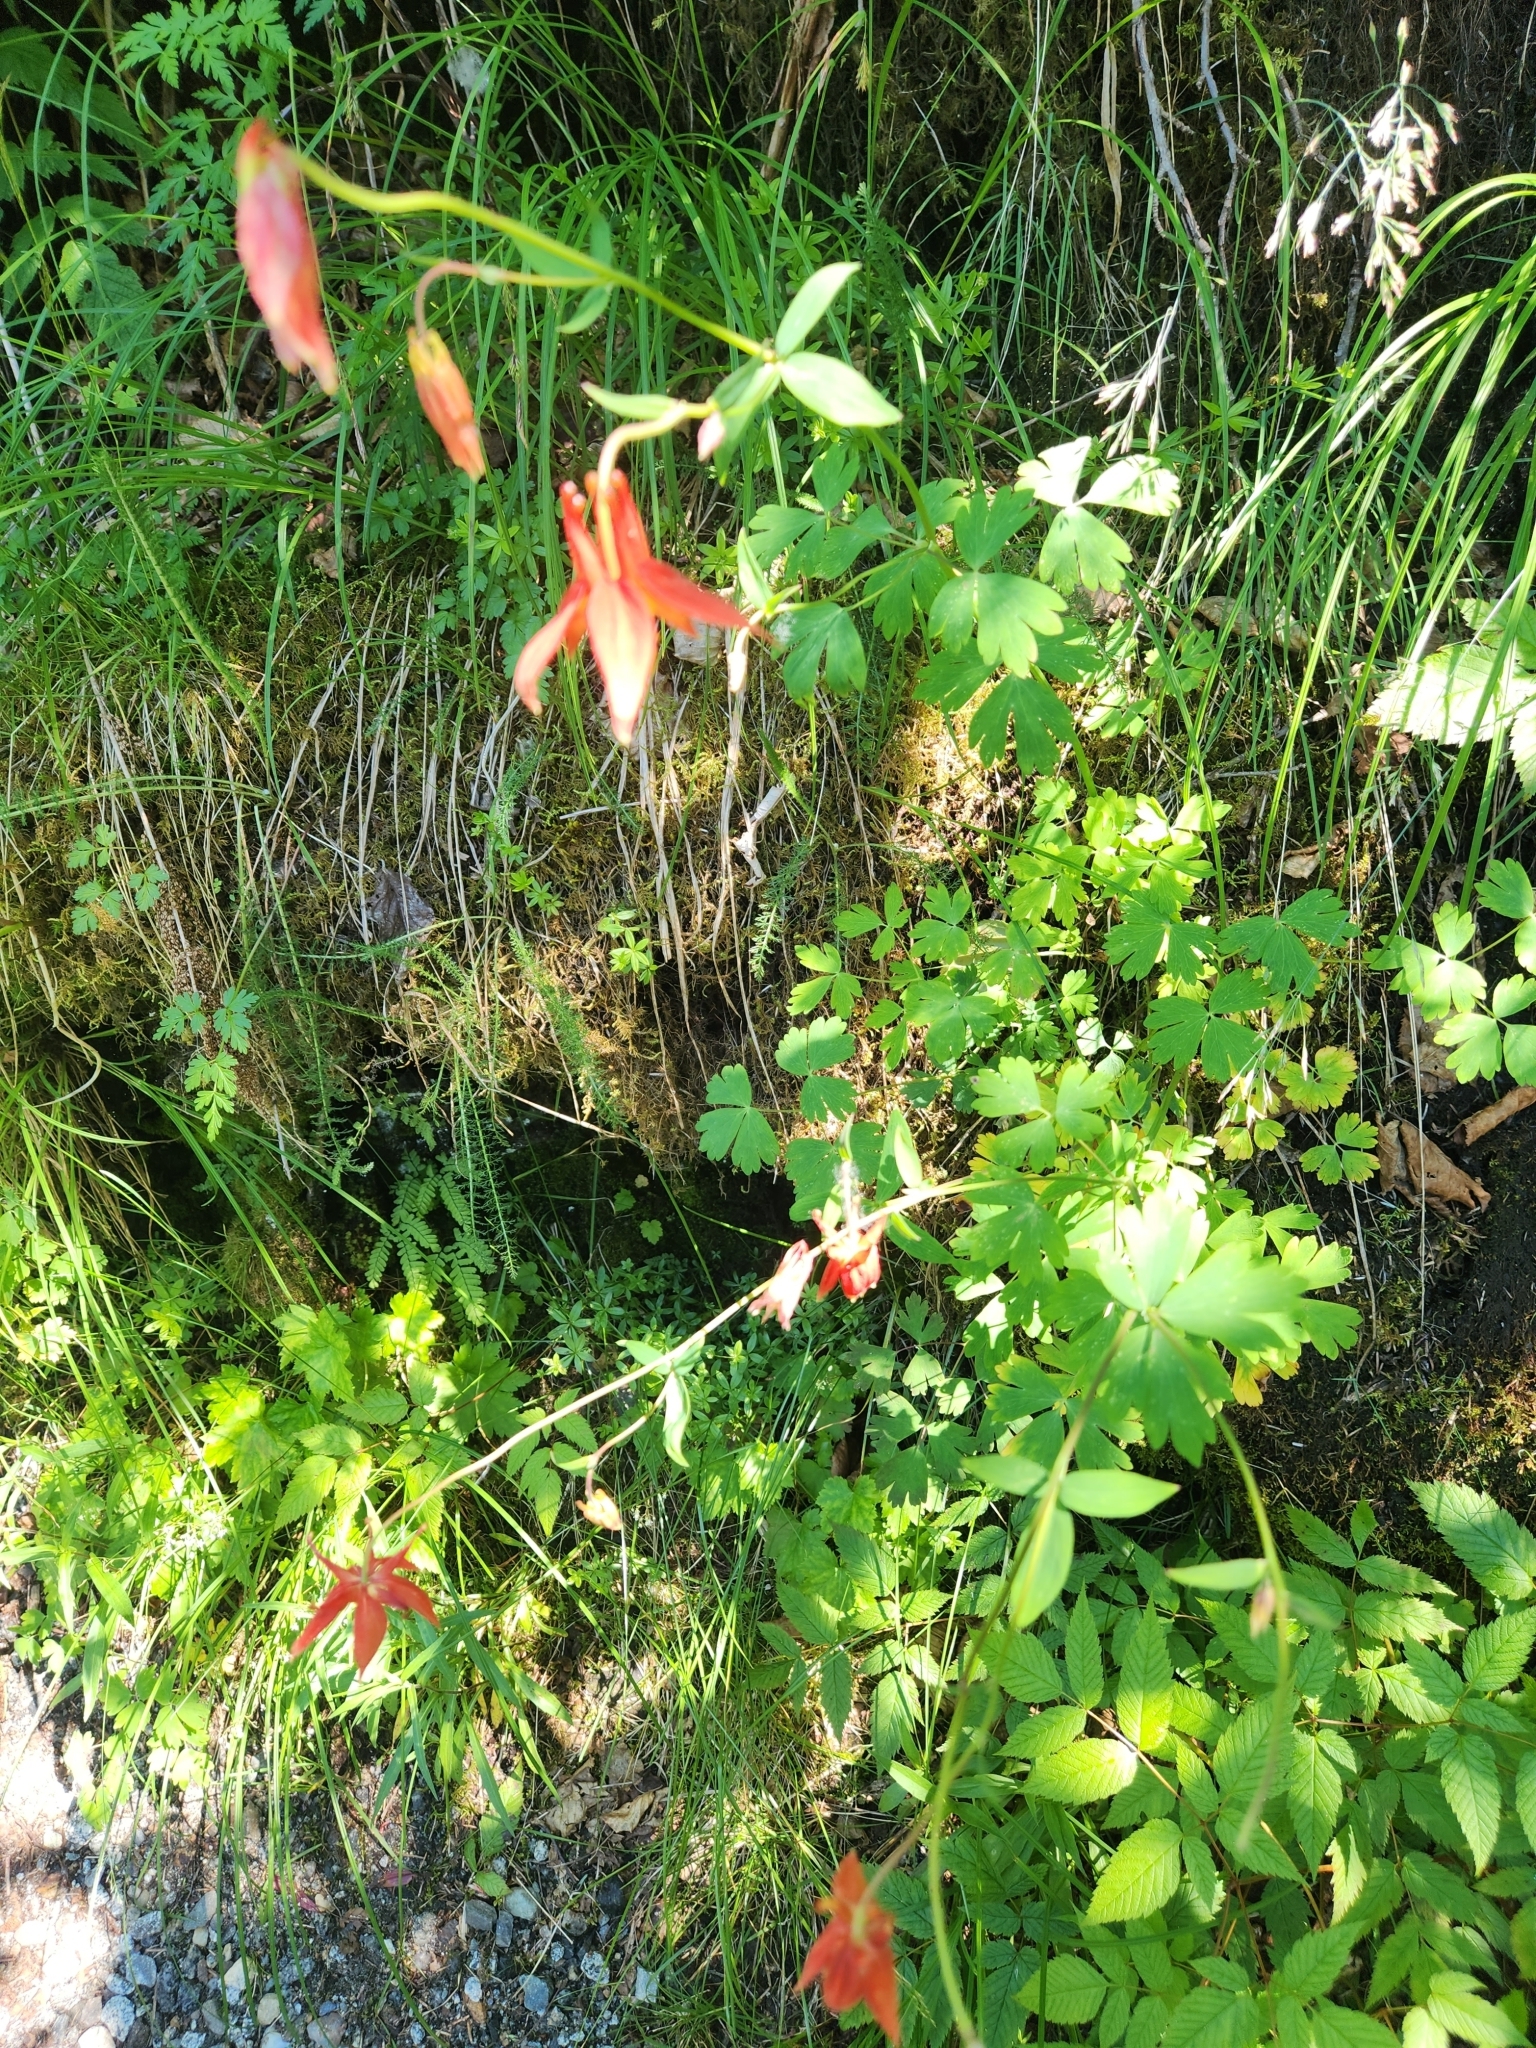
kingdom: Plantae
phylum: Tracheophyta
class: Magnoliopsida
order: Ranunculales
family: Ranunculaceae
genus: Aquilegia
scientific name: Aquilegia formosa
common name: Sitka columbine
